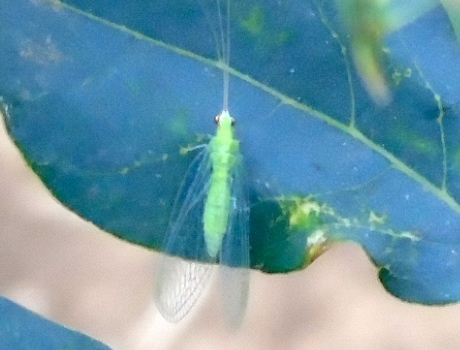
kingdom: Animalia
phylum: Arthropoda
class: Insecta
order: Neuroptera
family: Chrysopidae
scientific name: Chrysopidae
